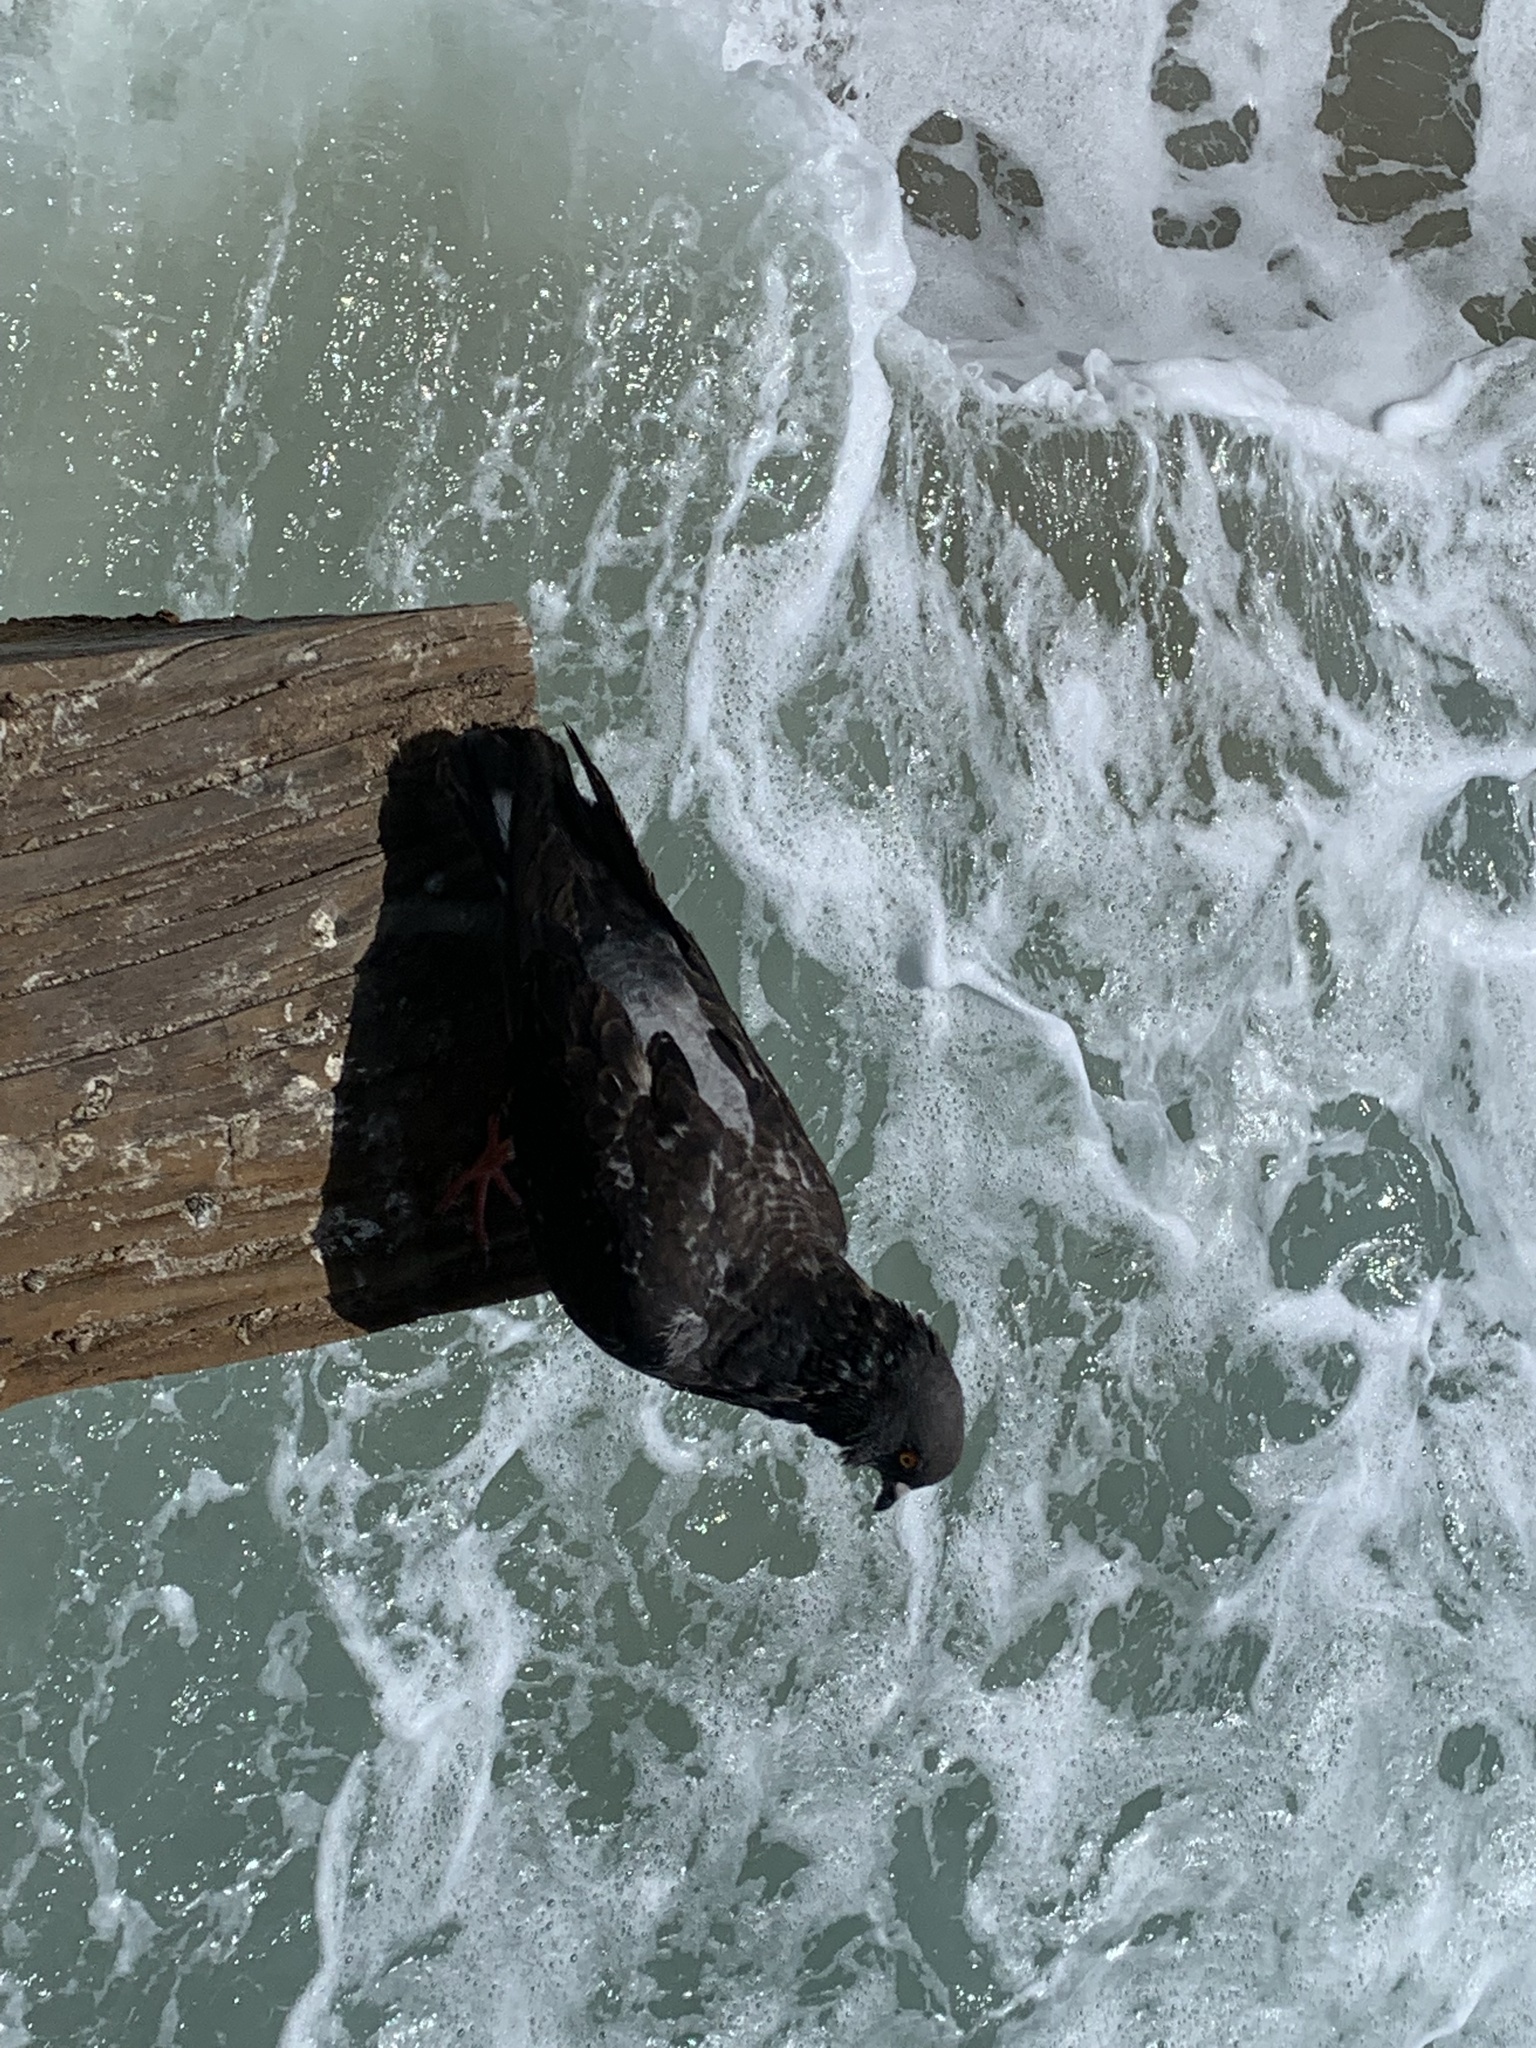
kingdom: Animalia
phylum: Chordata
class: Aves
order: Columbiformes
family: Columbidae
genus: Columba
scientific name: Columba livia
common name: Rock pigeon
